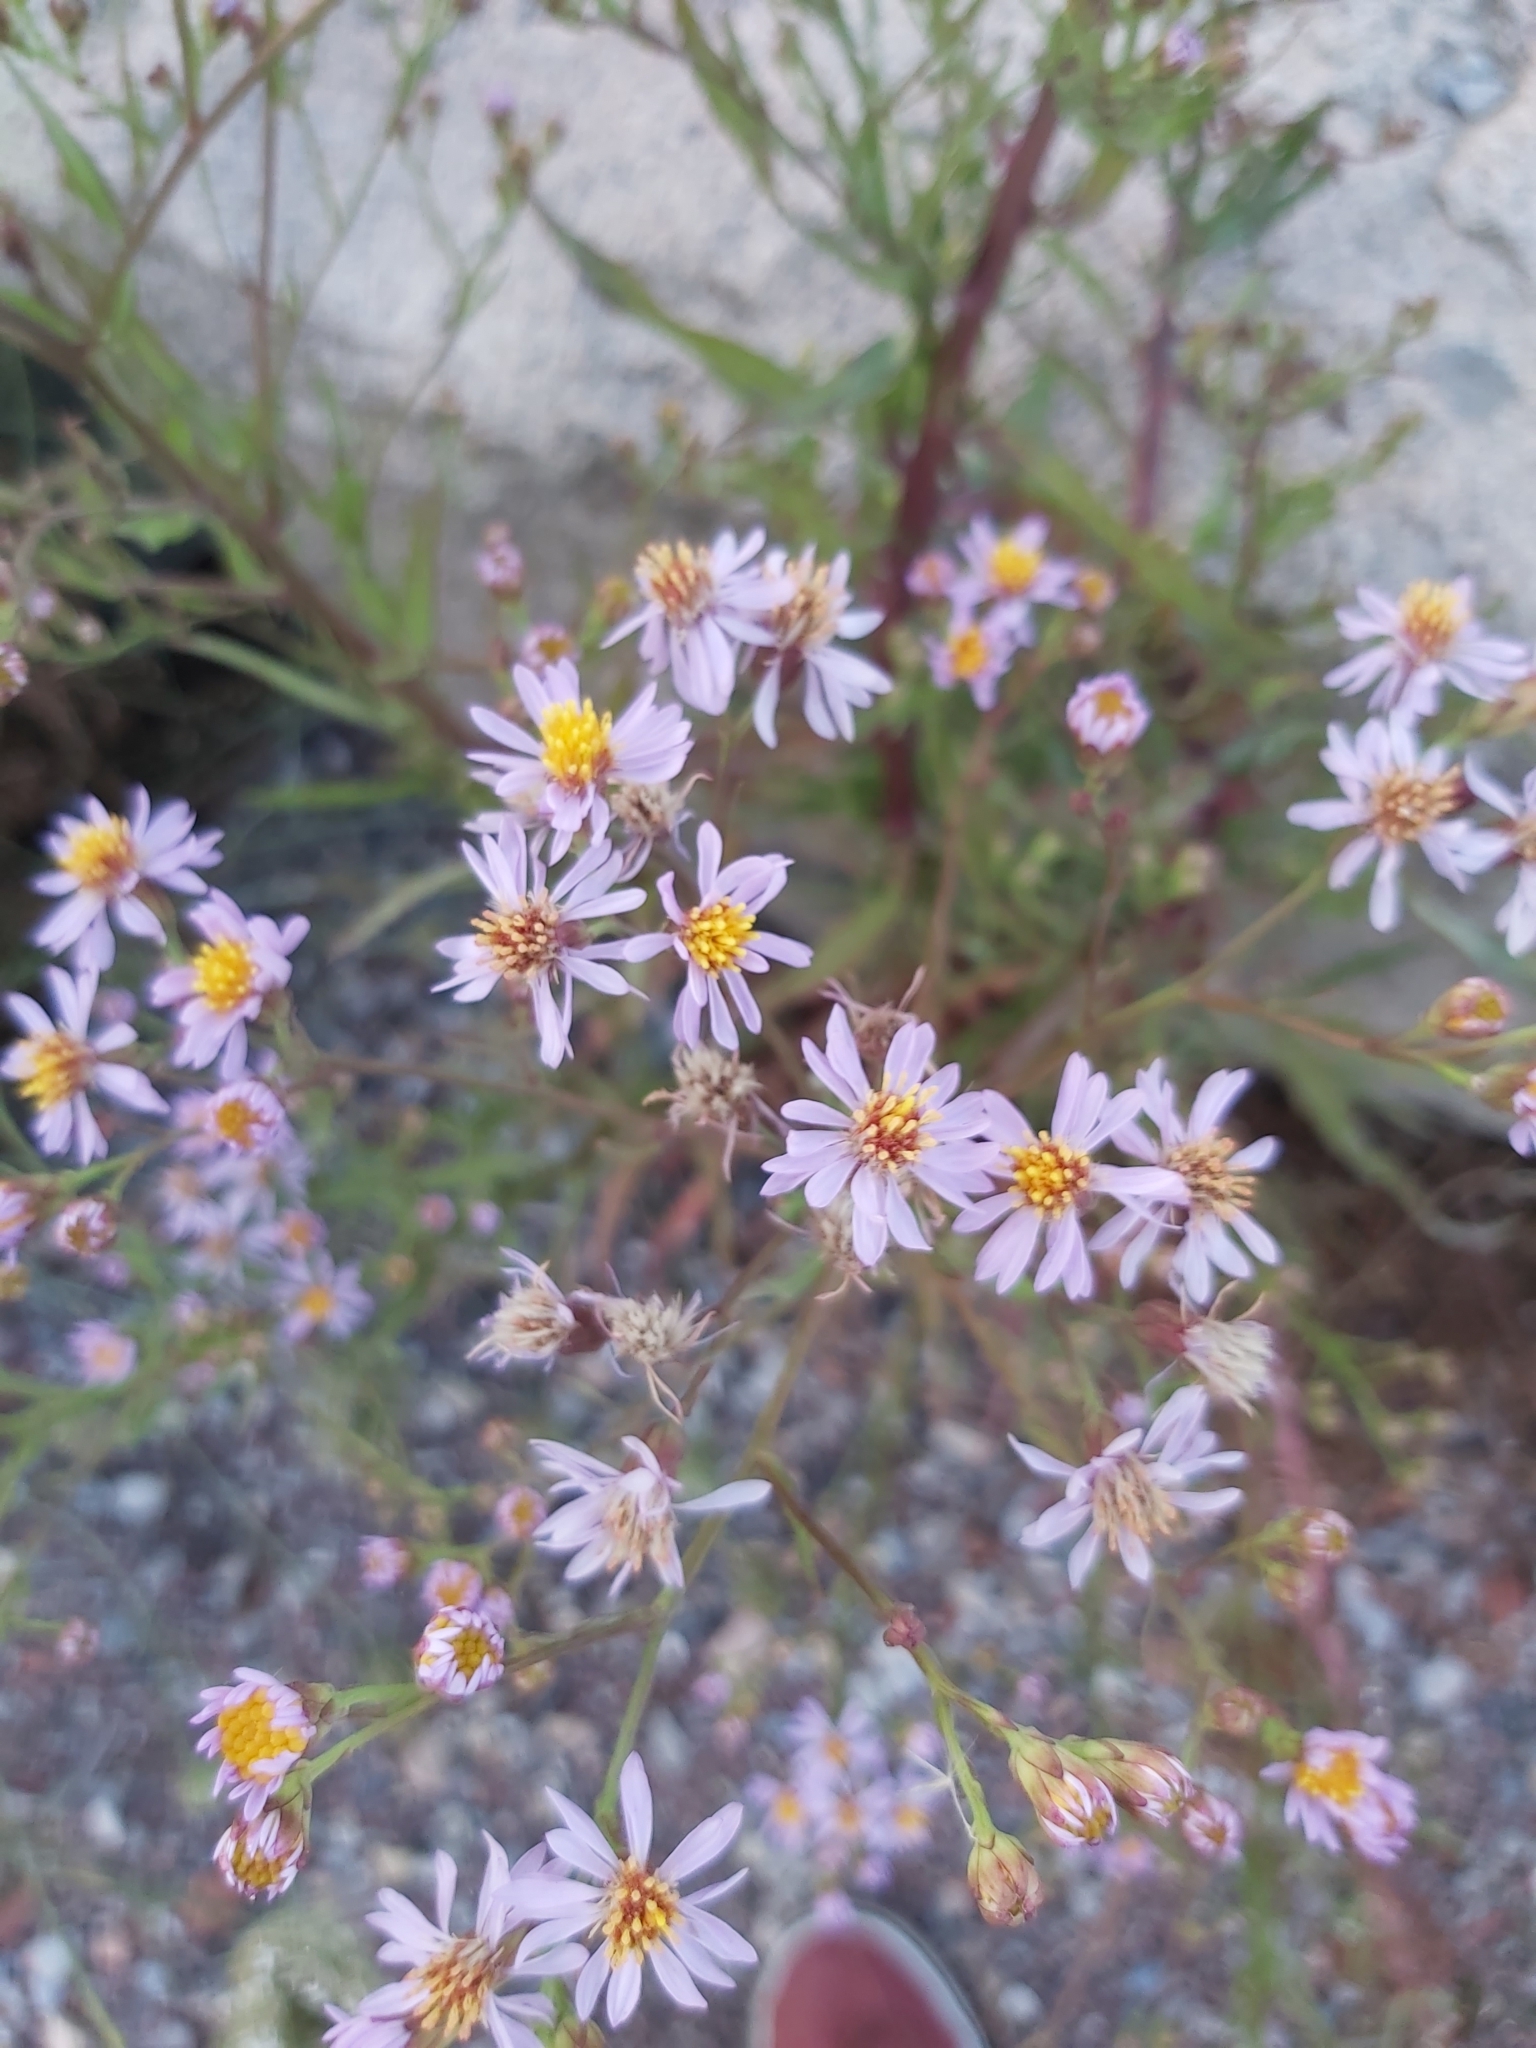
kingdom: Plantae
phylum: Tracheophyta
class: Magnoliopsida
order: Asterales
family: Asteraceae
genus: Tripolium
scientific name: Tripolium pannonicum
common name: Sea aster
